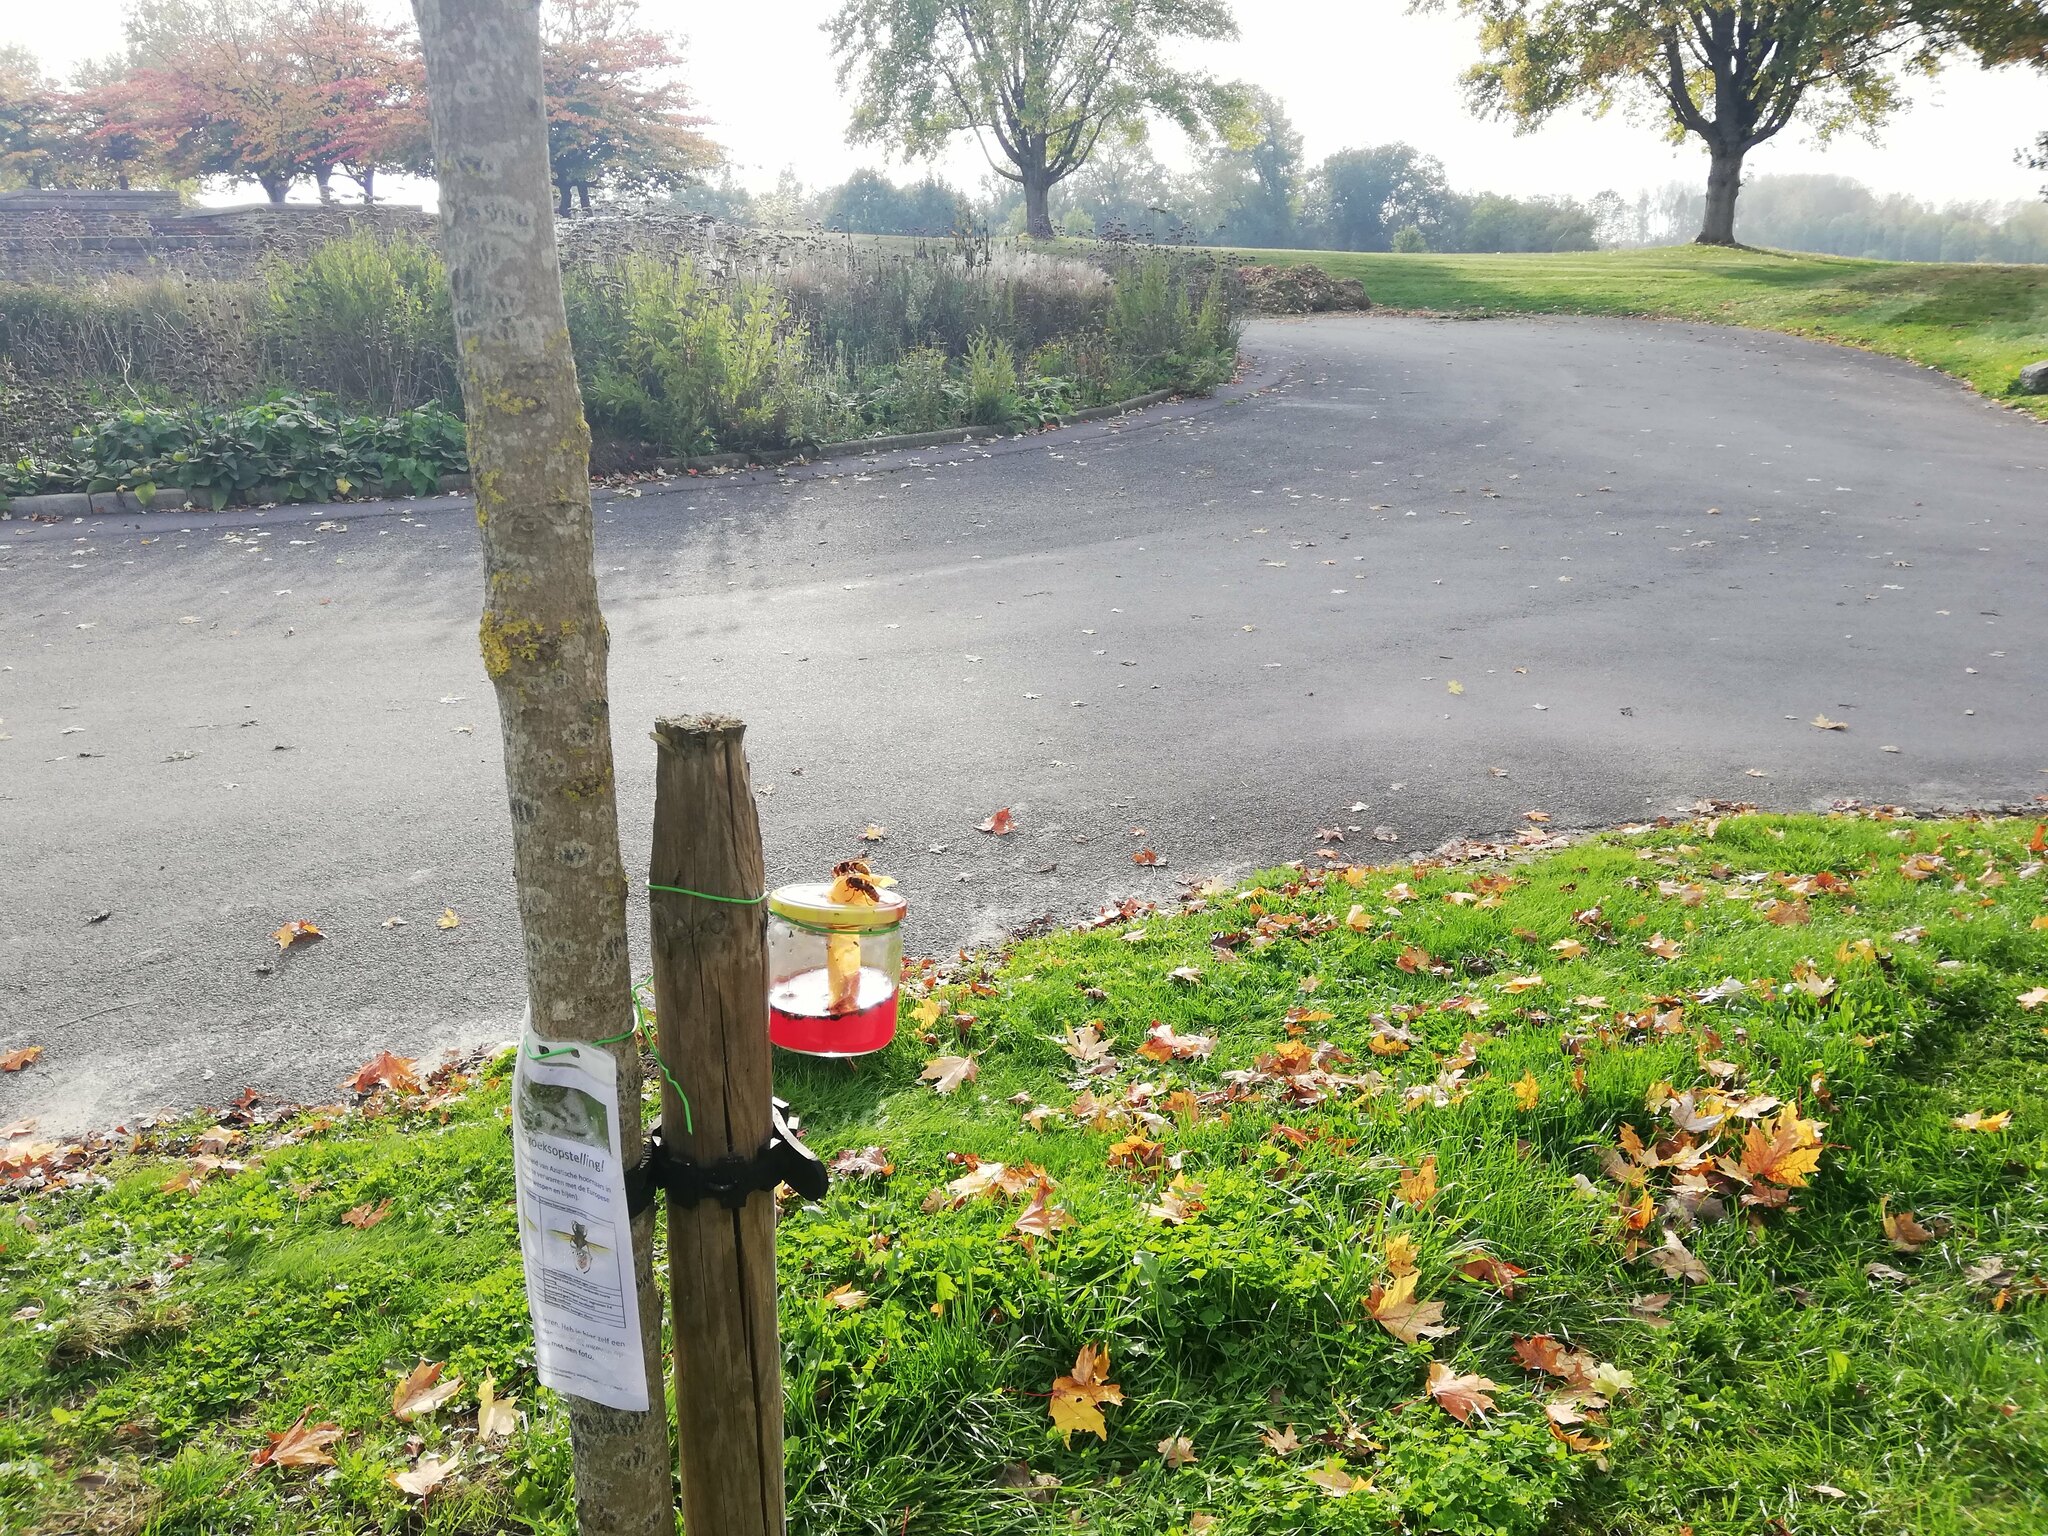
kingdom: Animalia
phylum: Arthropoda
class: Insecta
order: Hymenoptera
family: Vespidae
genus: Vespa
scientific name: Vespa crabro
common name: Hornet
